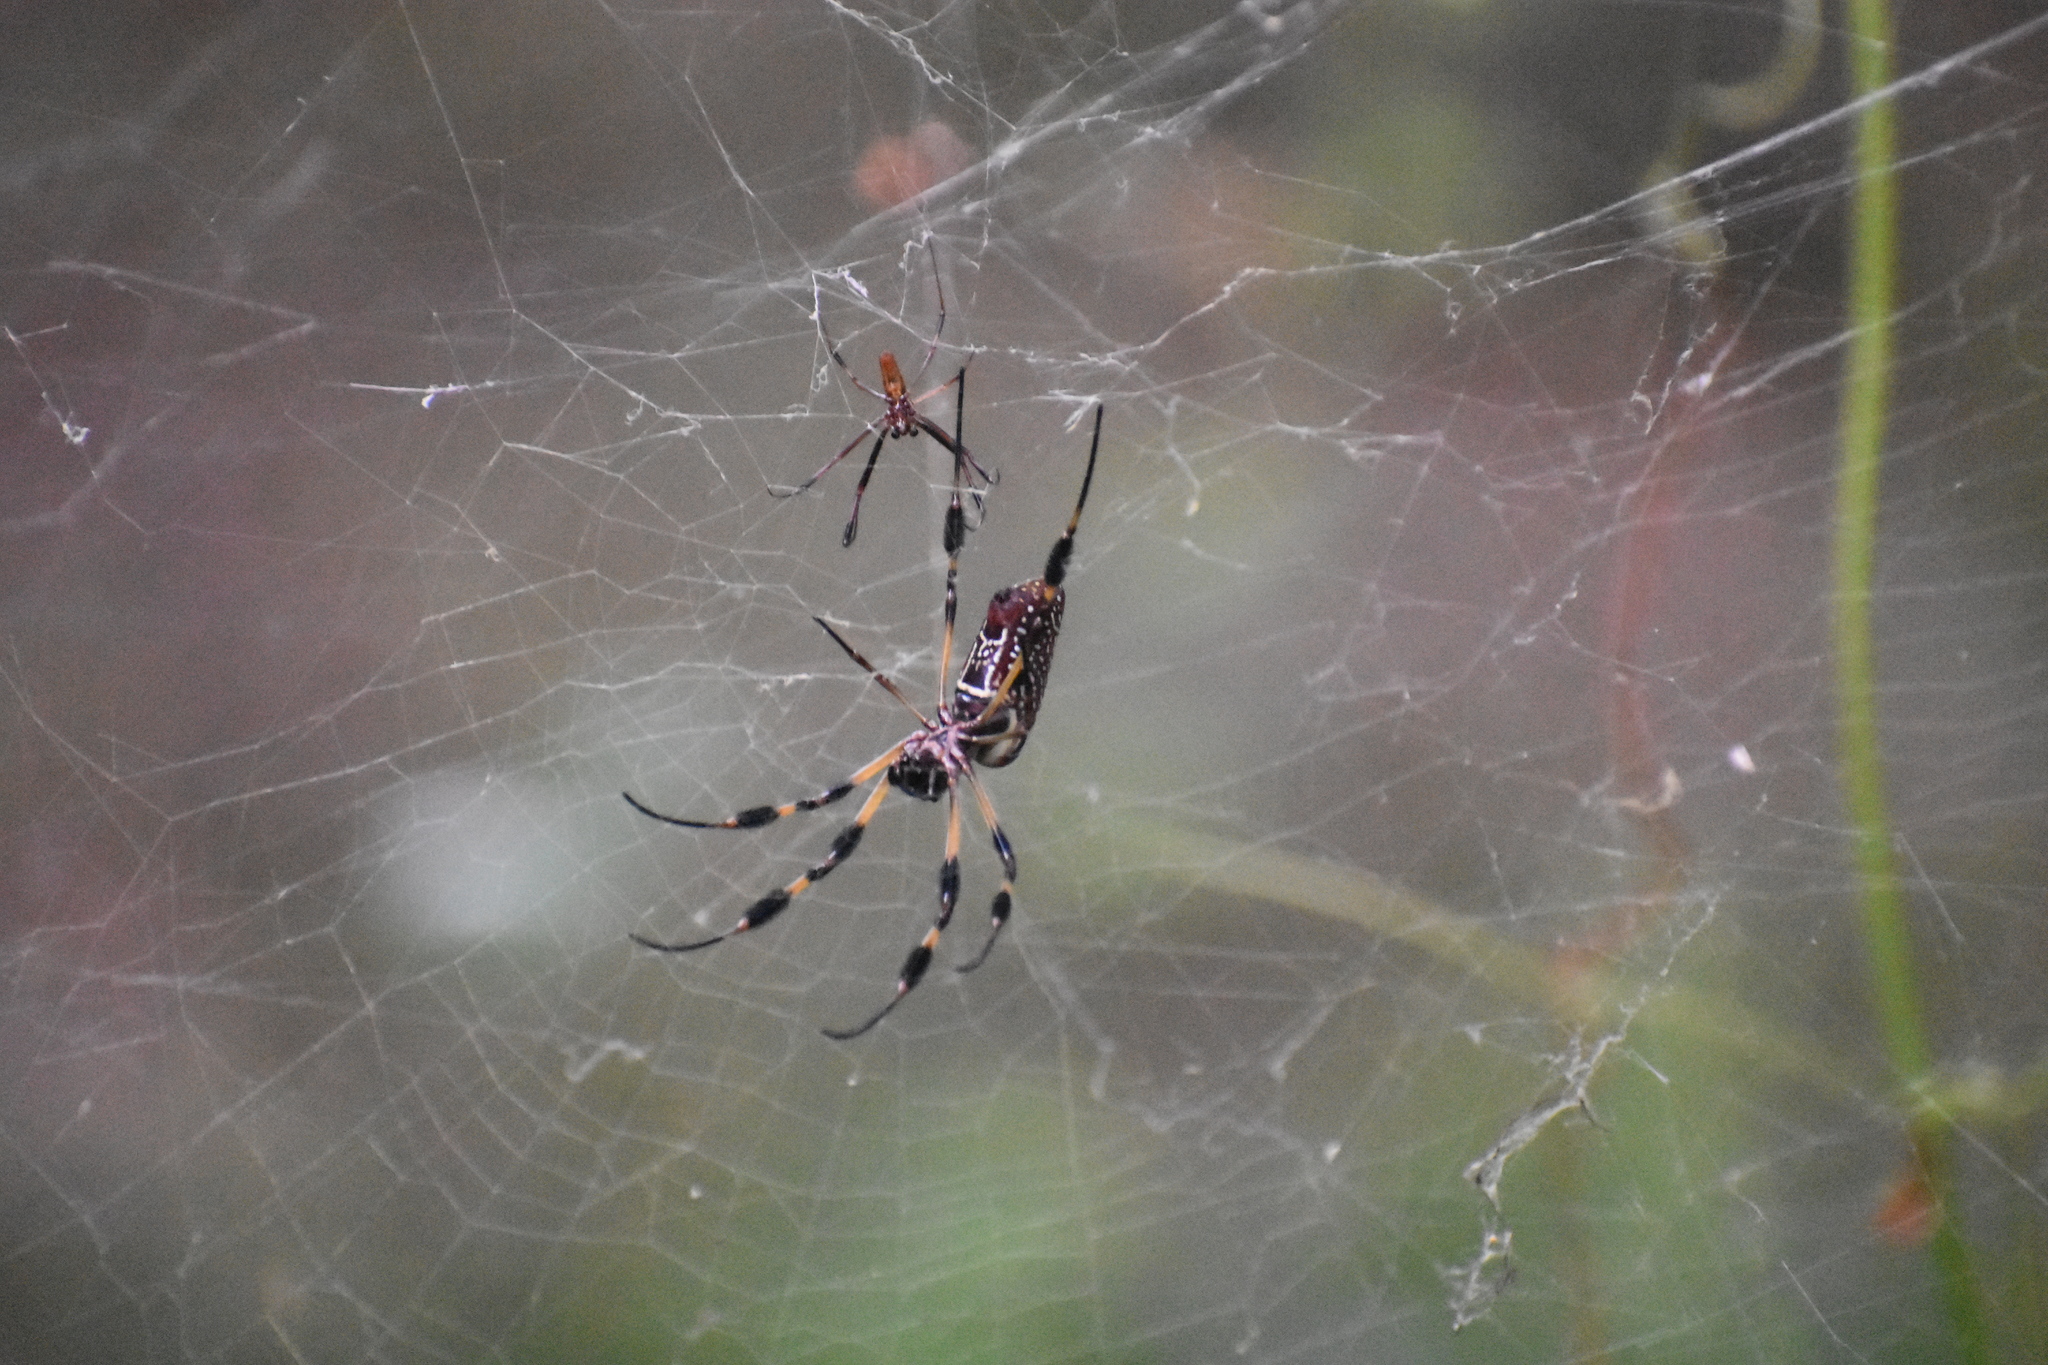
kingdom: Animalia
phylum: Arthropoda
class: Arachnida
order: Araneae
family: Araneidae
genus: Trichonephila
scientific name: Trichonephila clavipes
